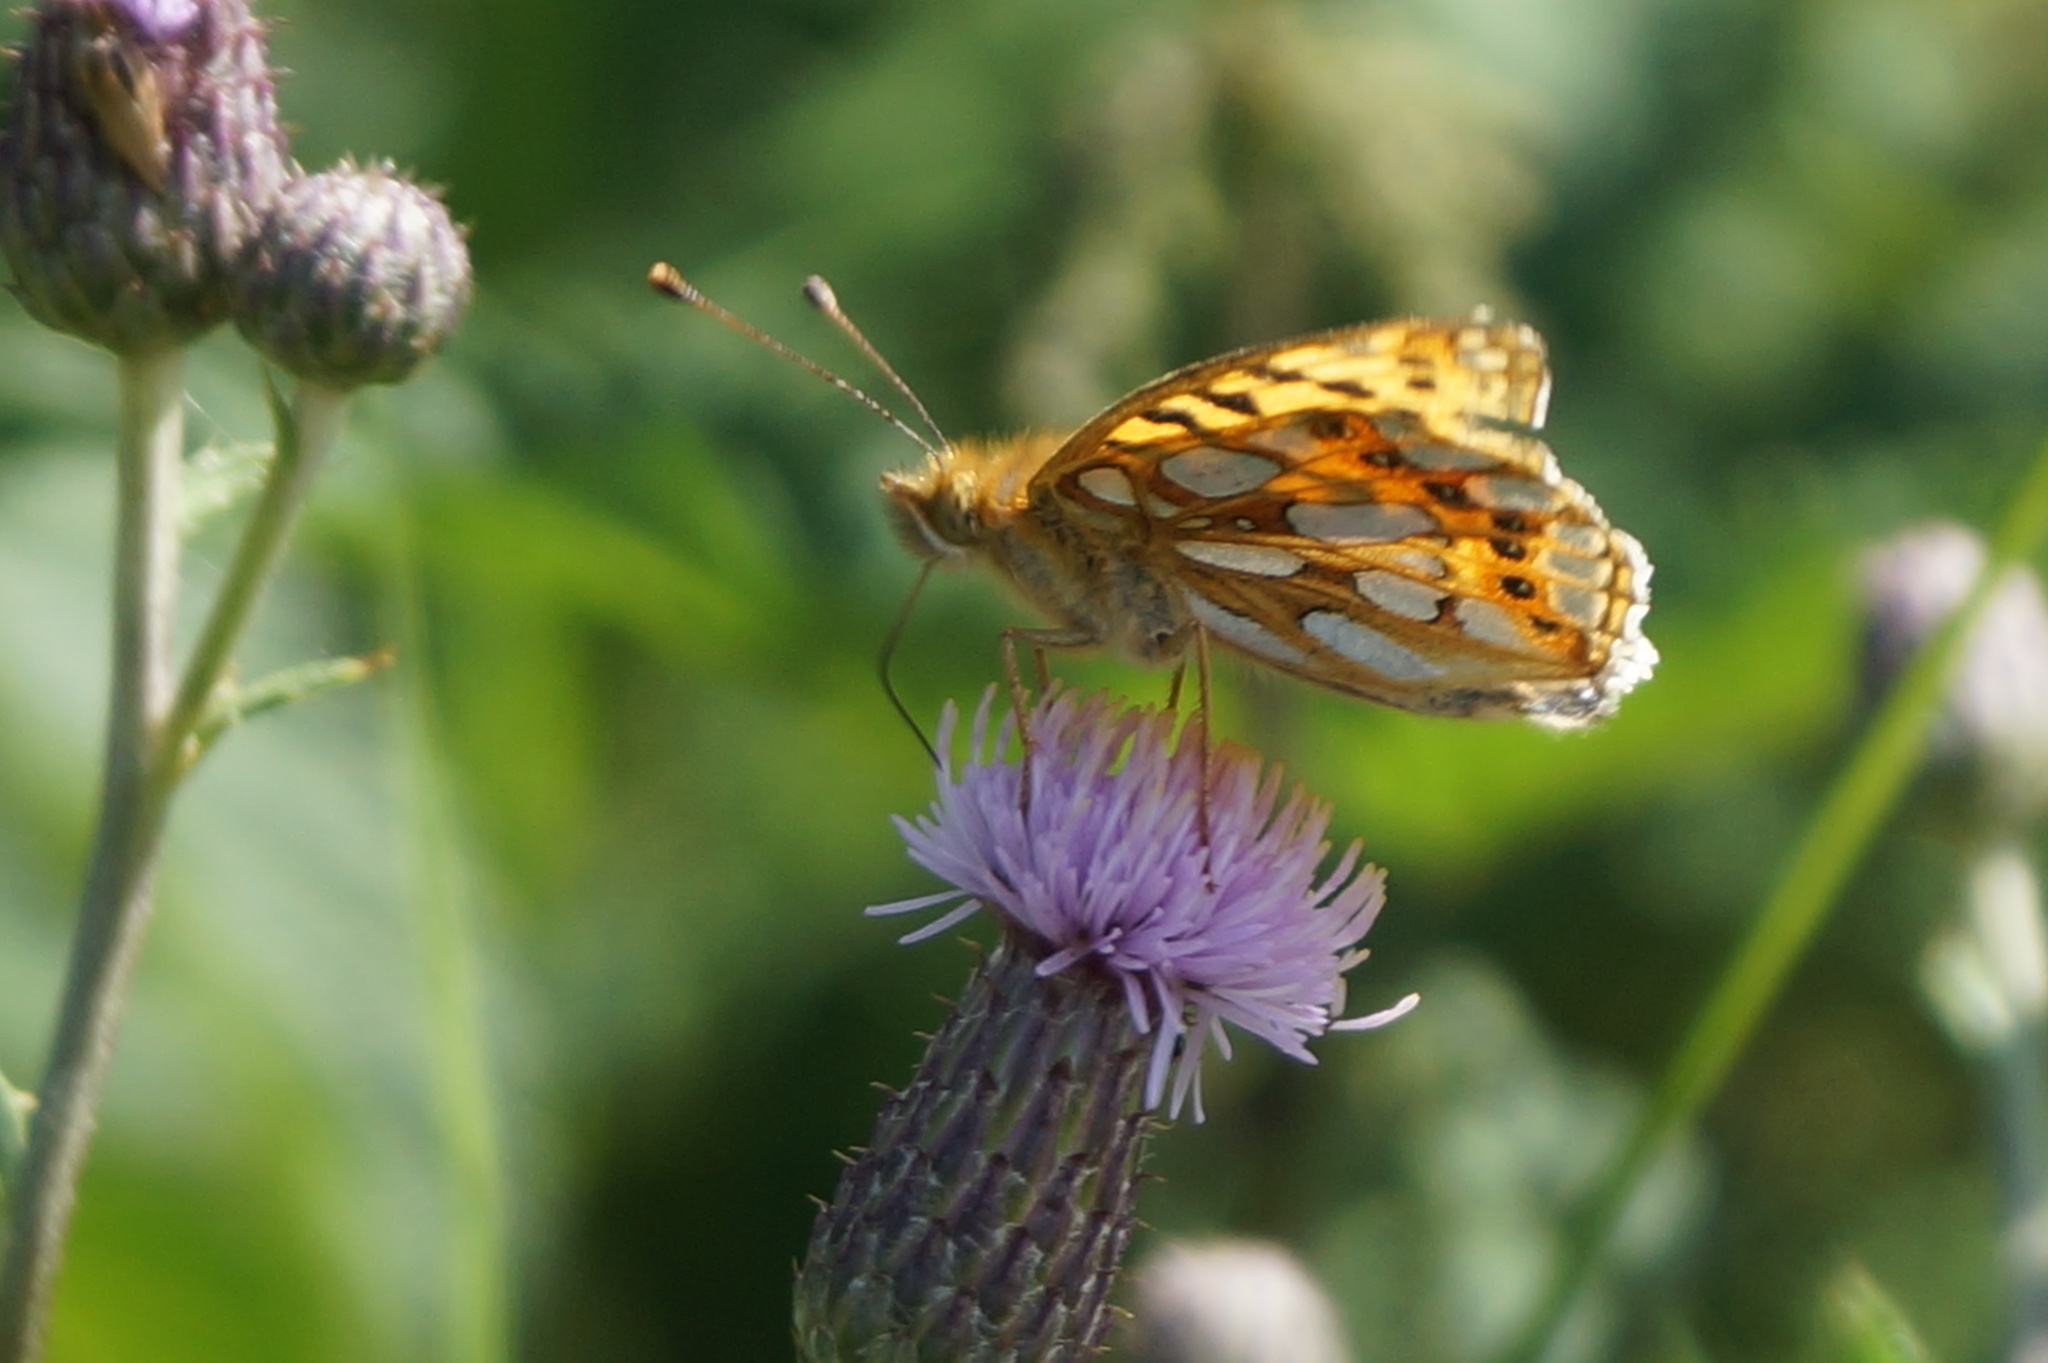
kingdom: Animalia
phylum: Arthropoda
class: Insecta
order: Lepidoptera
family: Nymphalidae
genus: Issoria
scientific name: Issoria lathonia
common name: Queen of spain fritillary
